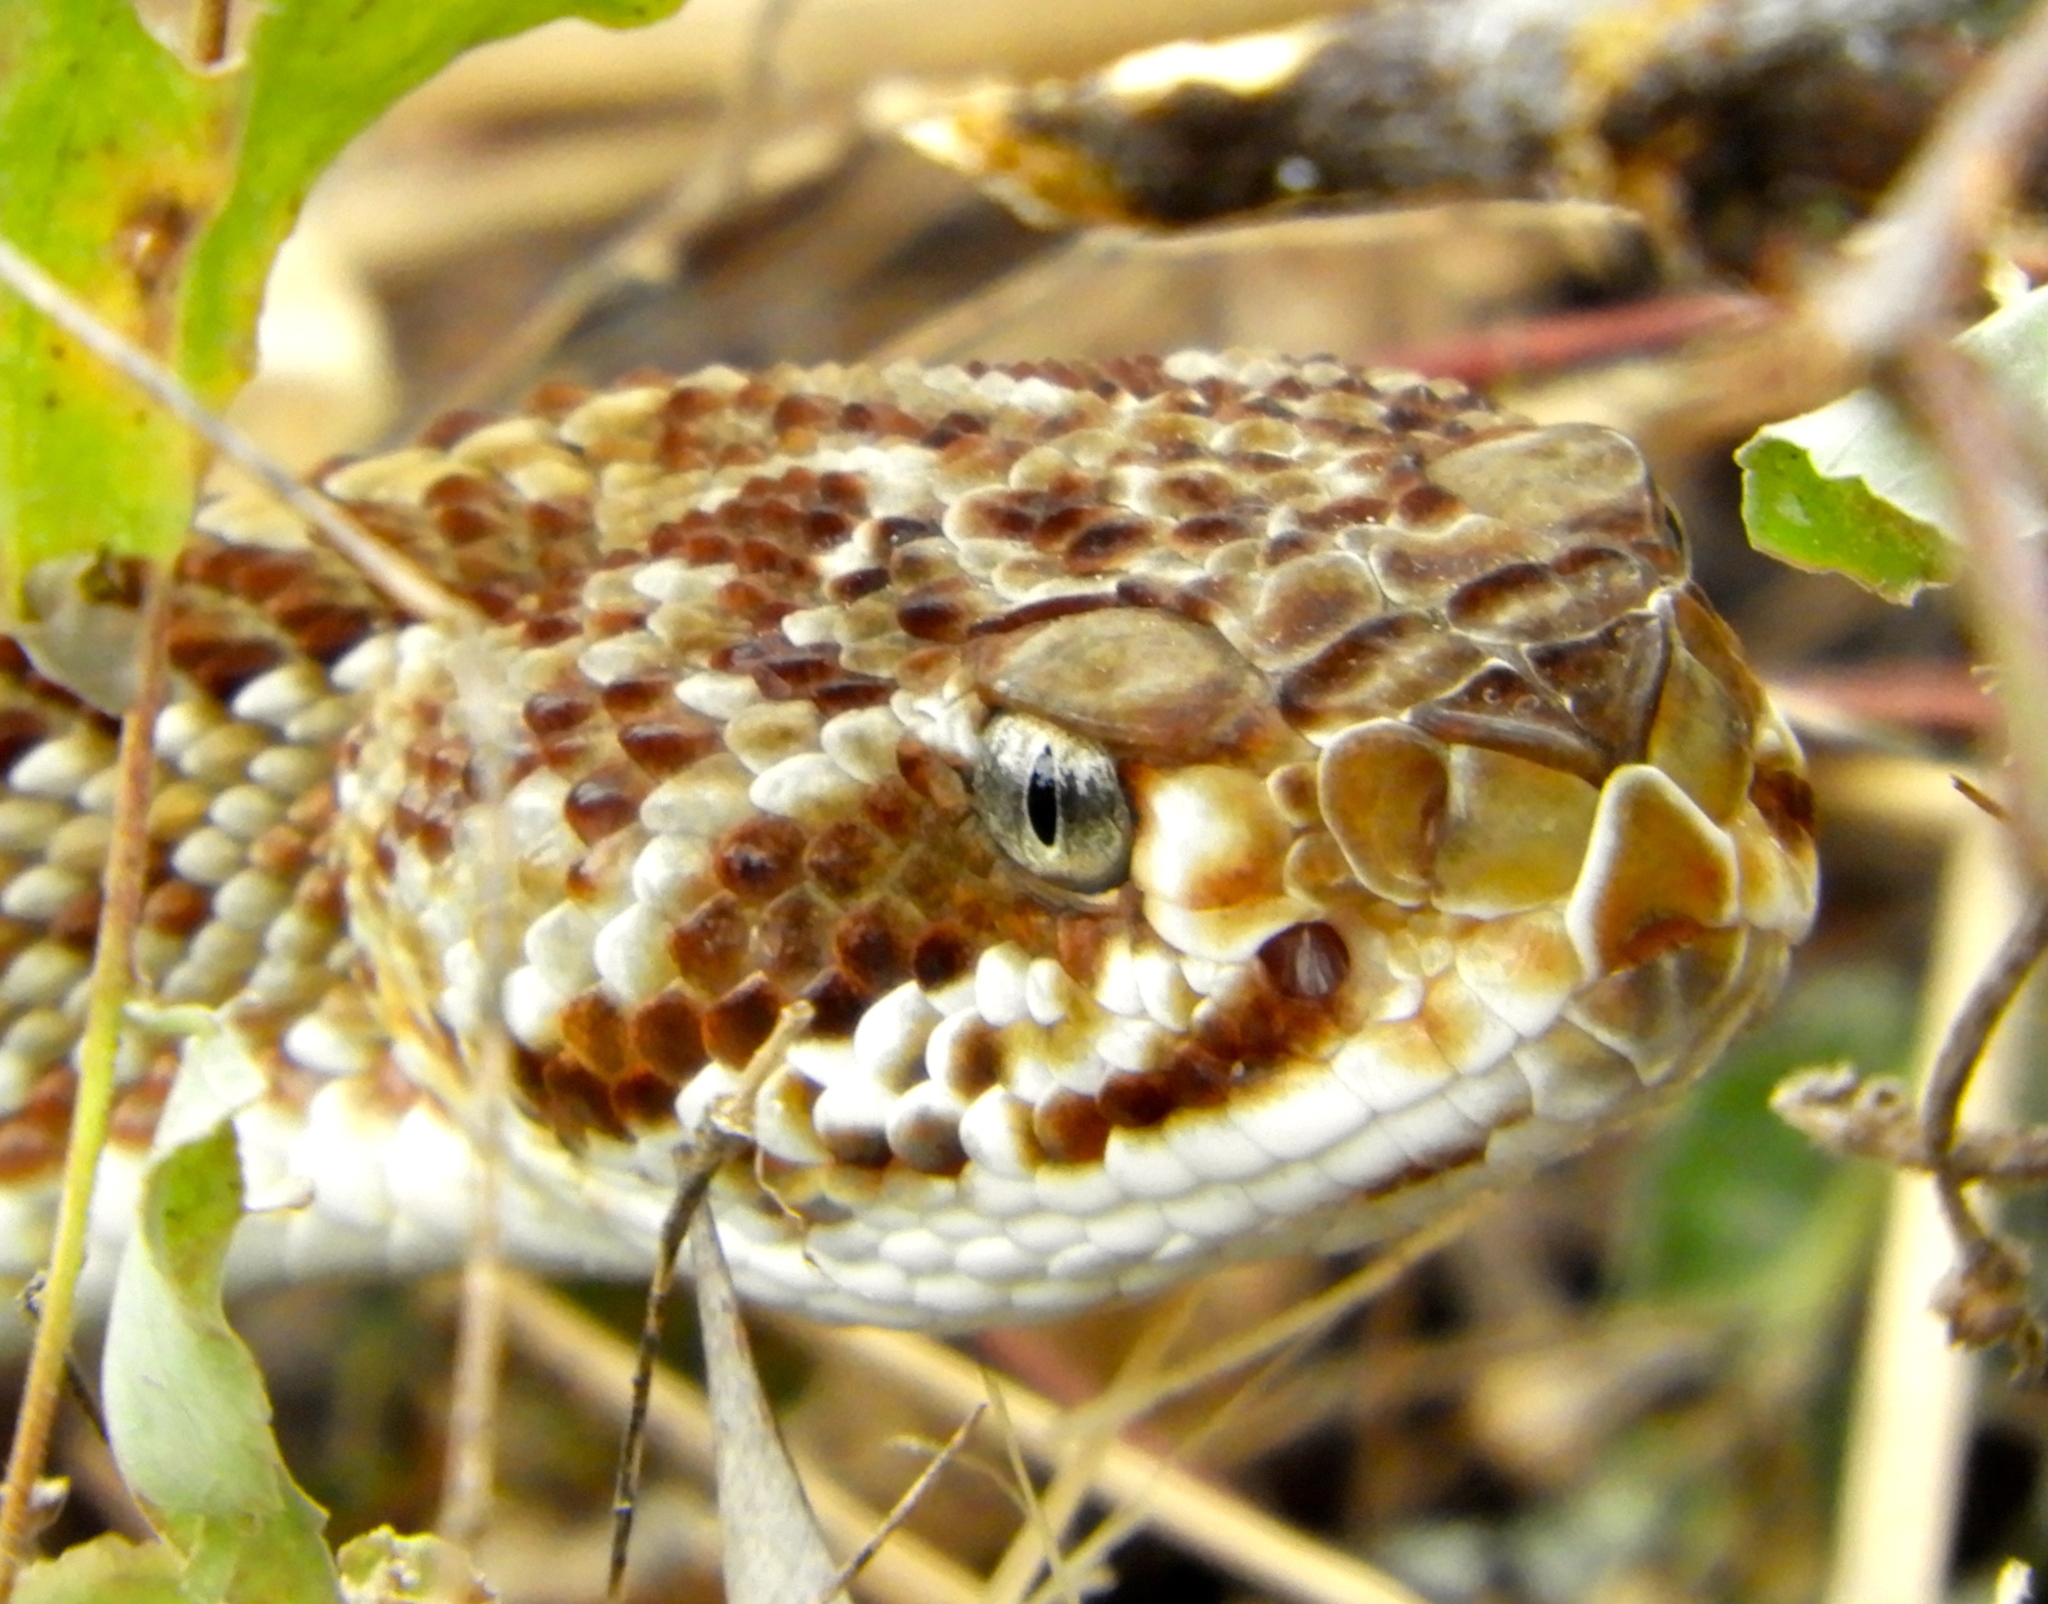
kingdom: Animalia
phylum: Chordata
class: Squamata
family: Viperidae
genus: Crotalus
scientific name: Crotalus basiliscus
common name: Basilisk rattlesnake
